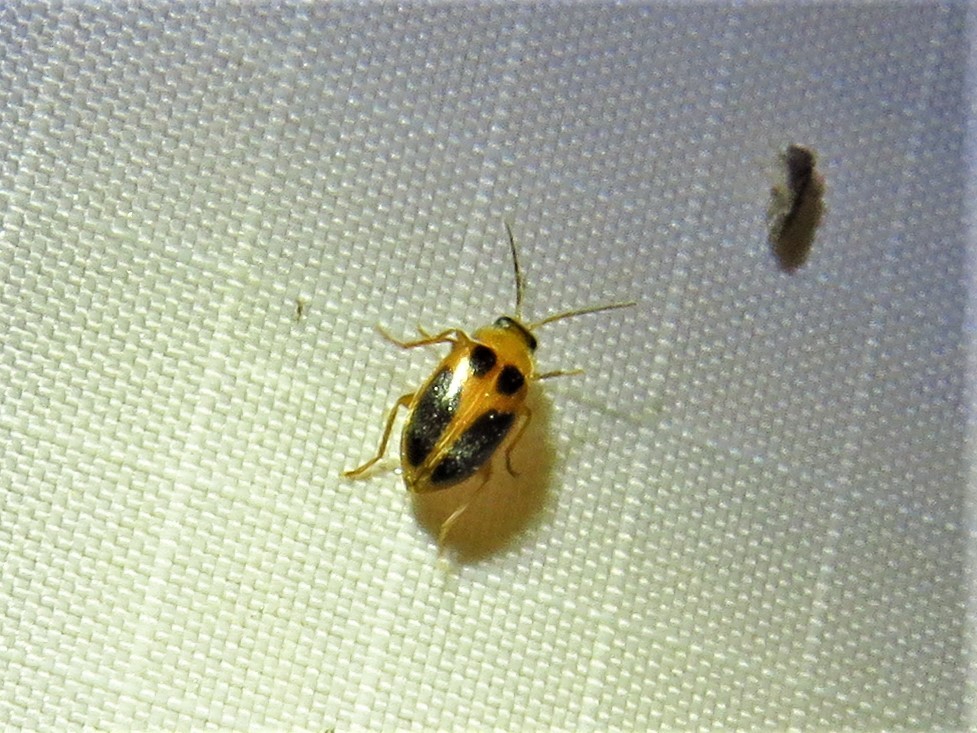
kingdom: Animalia
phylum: Arthropoda
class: Insecta
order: Coleoptera
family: Scirtidae
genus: Sacodes
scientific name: Sacodes pulchella
